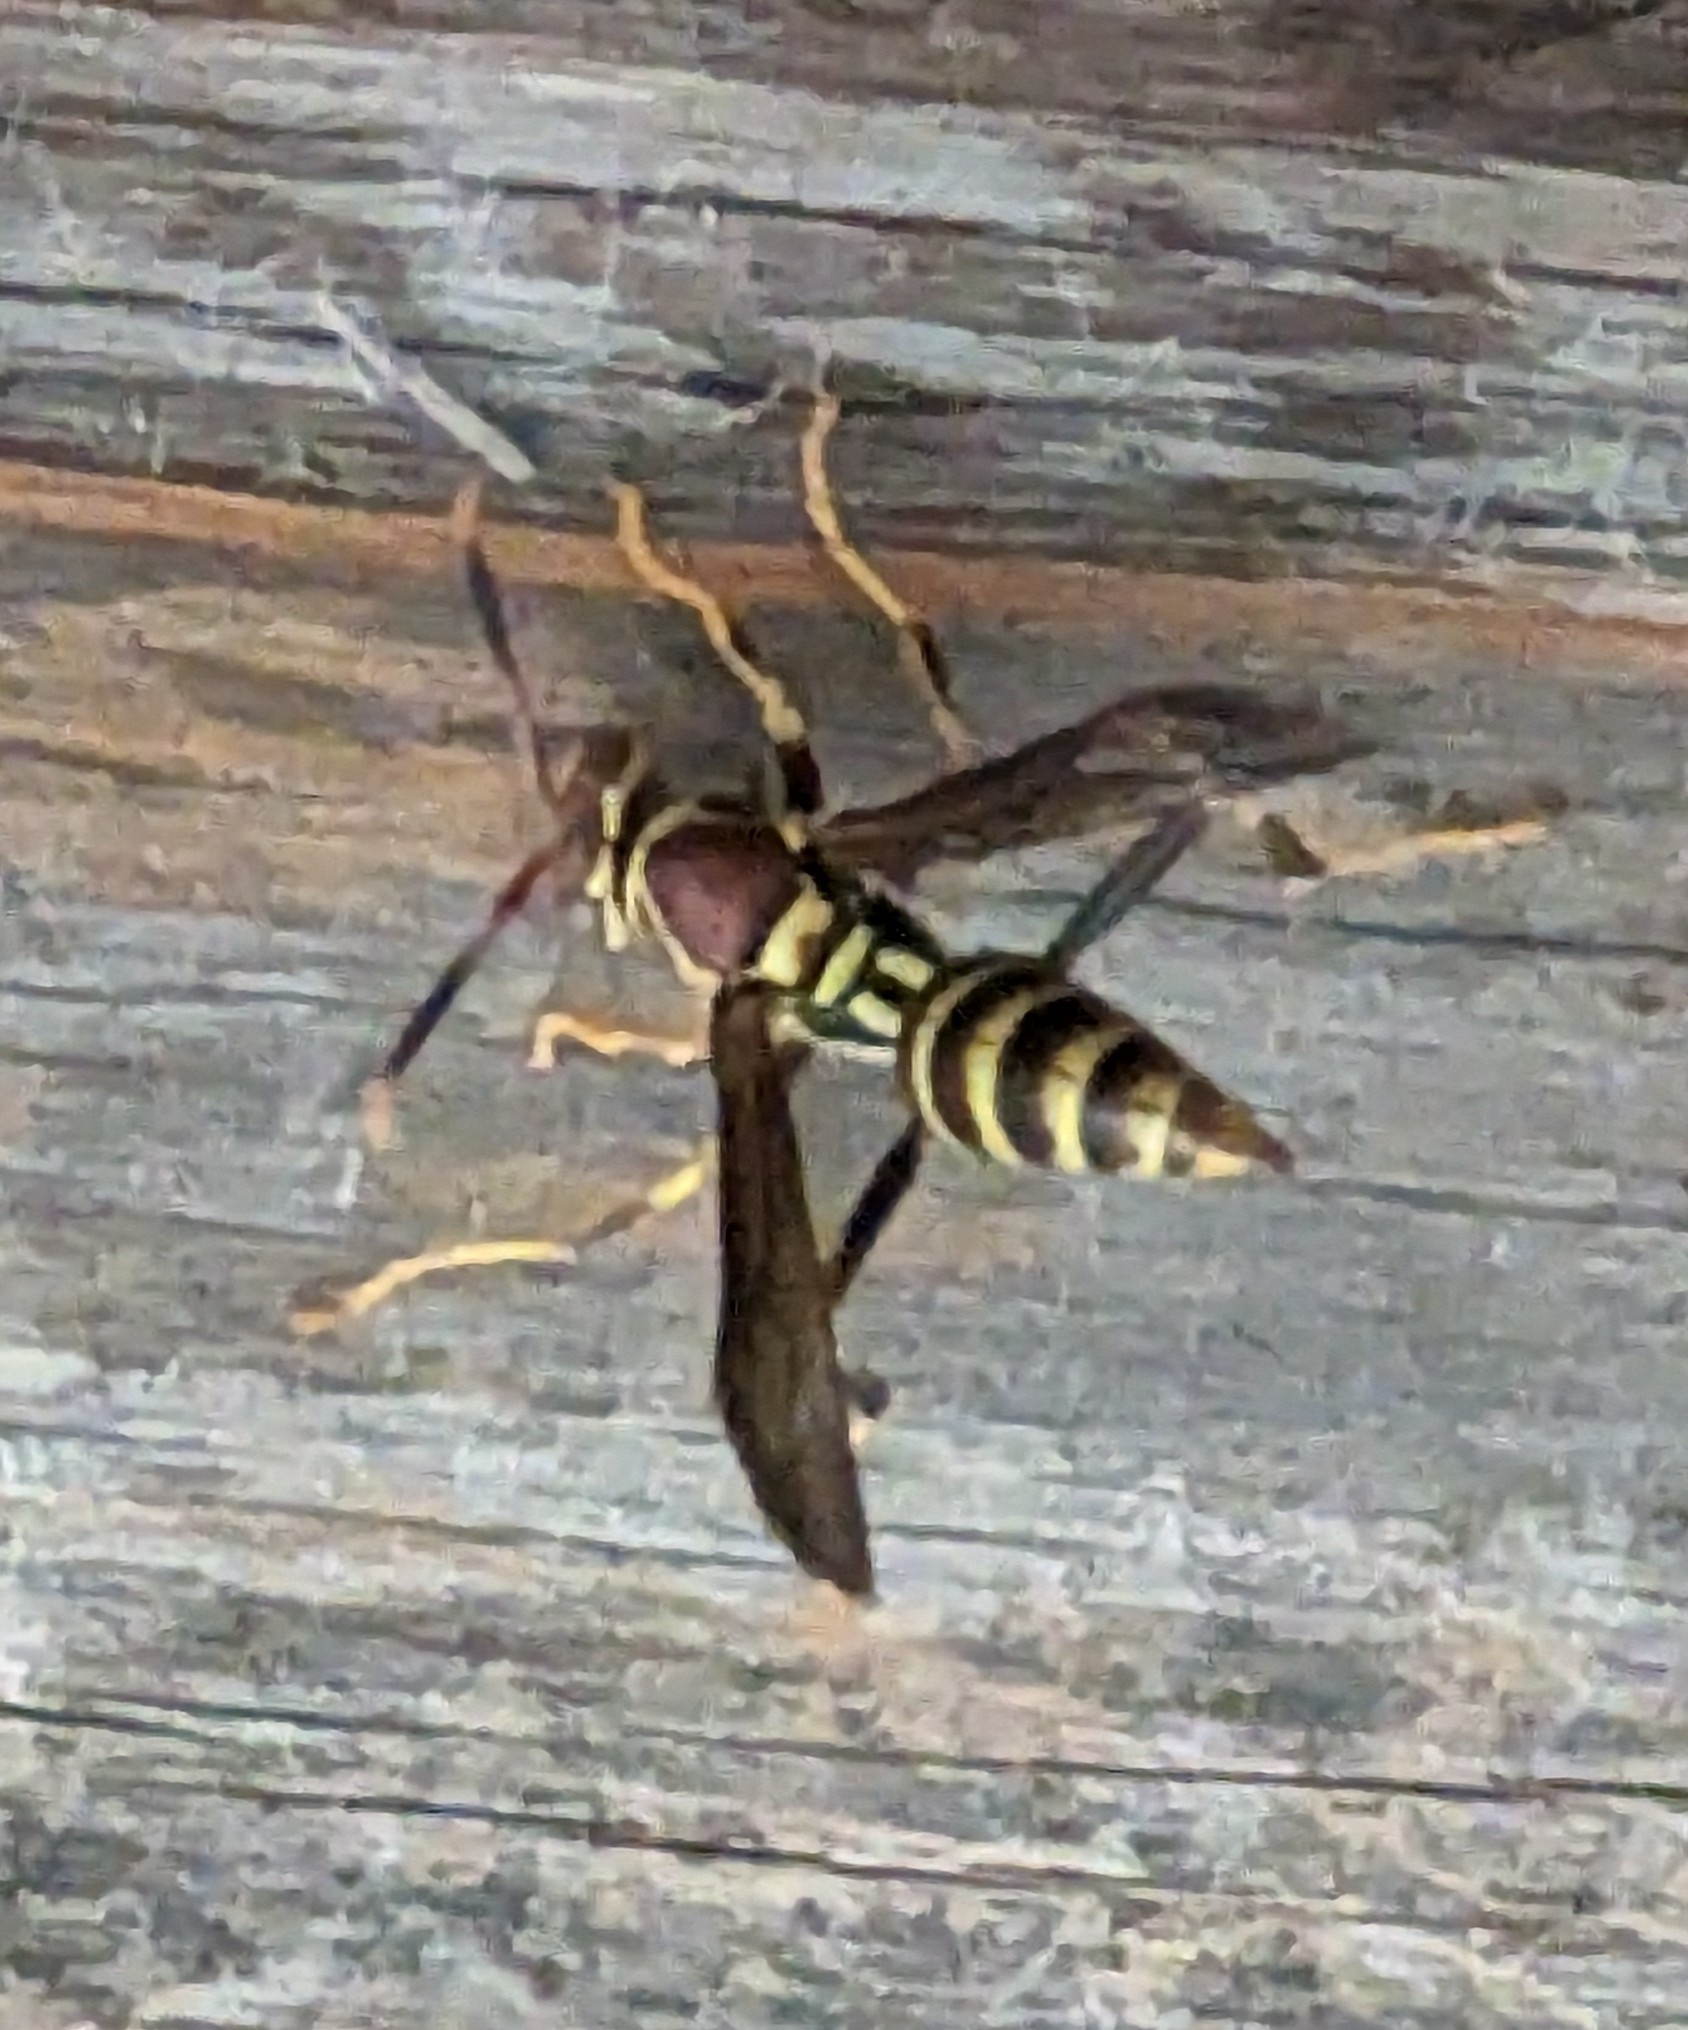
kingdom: Animalia
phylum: Arthropoda
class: Insecta
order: Hymenoptera
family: Eumenidae
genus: Polistes
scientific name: Polistes exclamans
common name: Paper wasp
